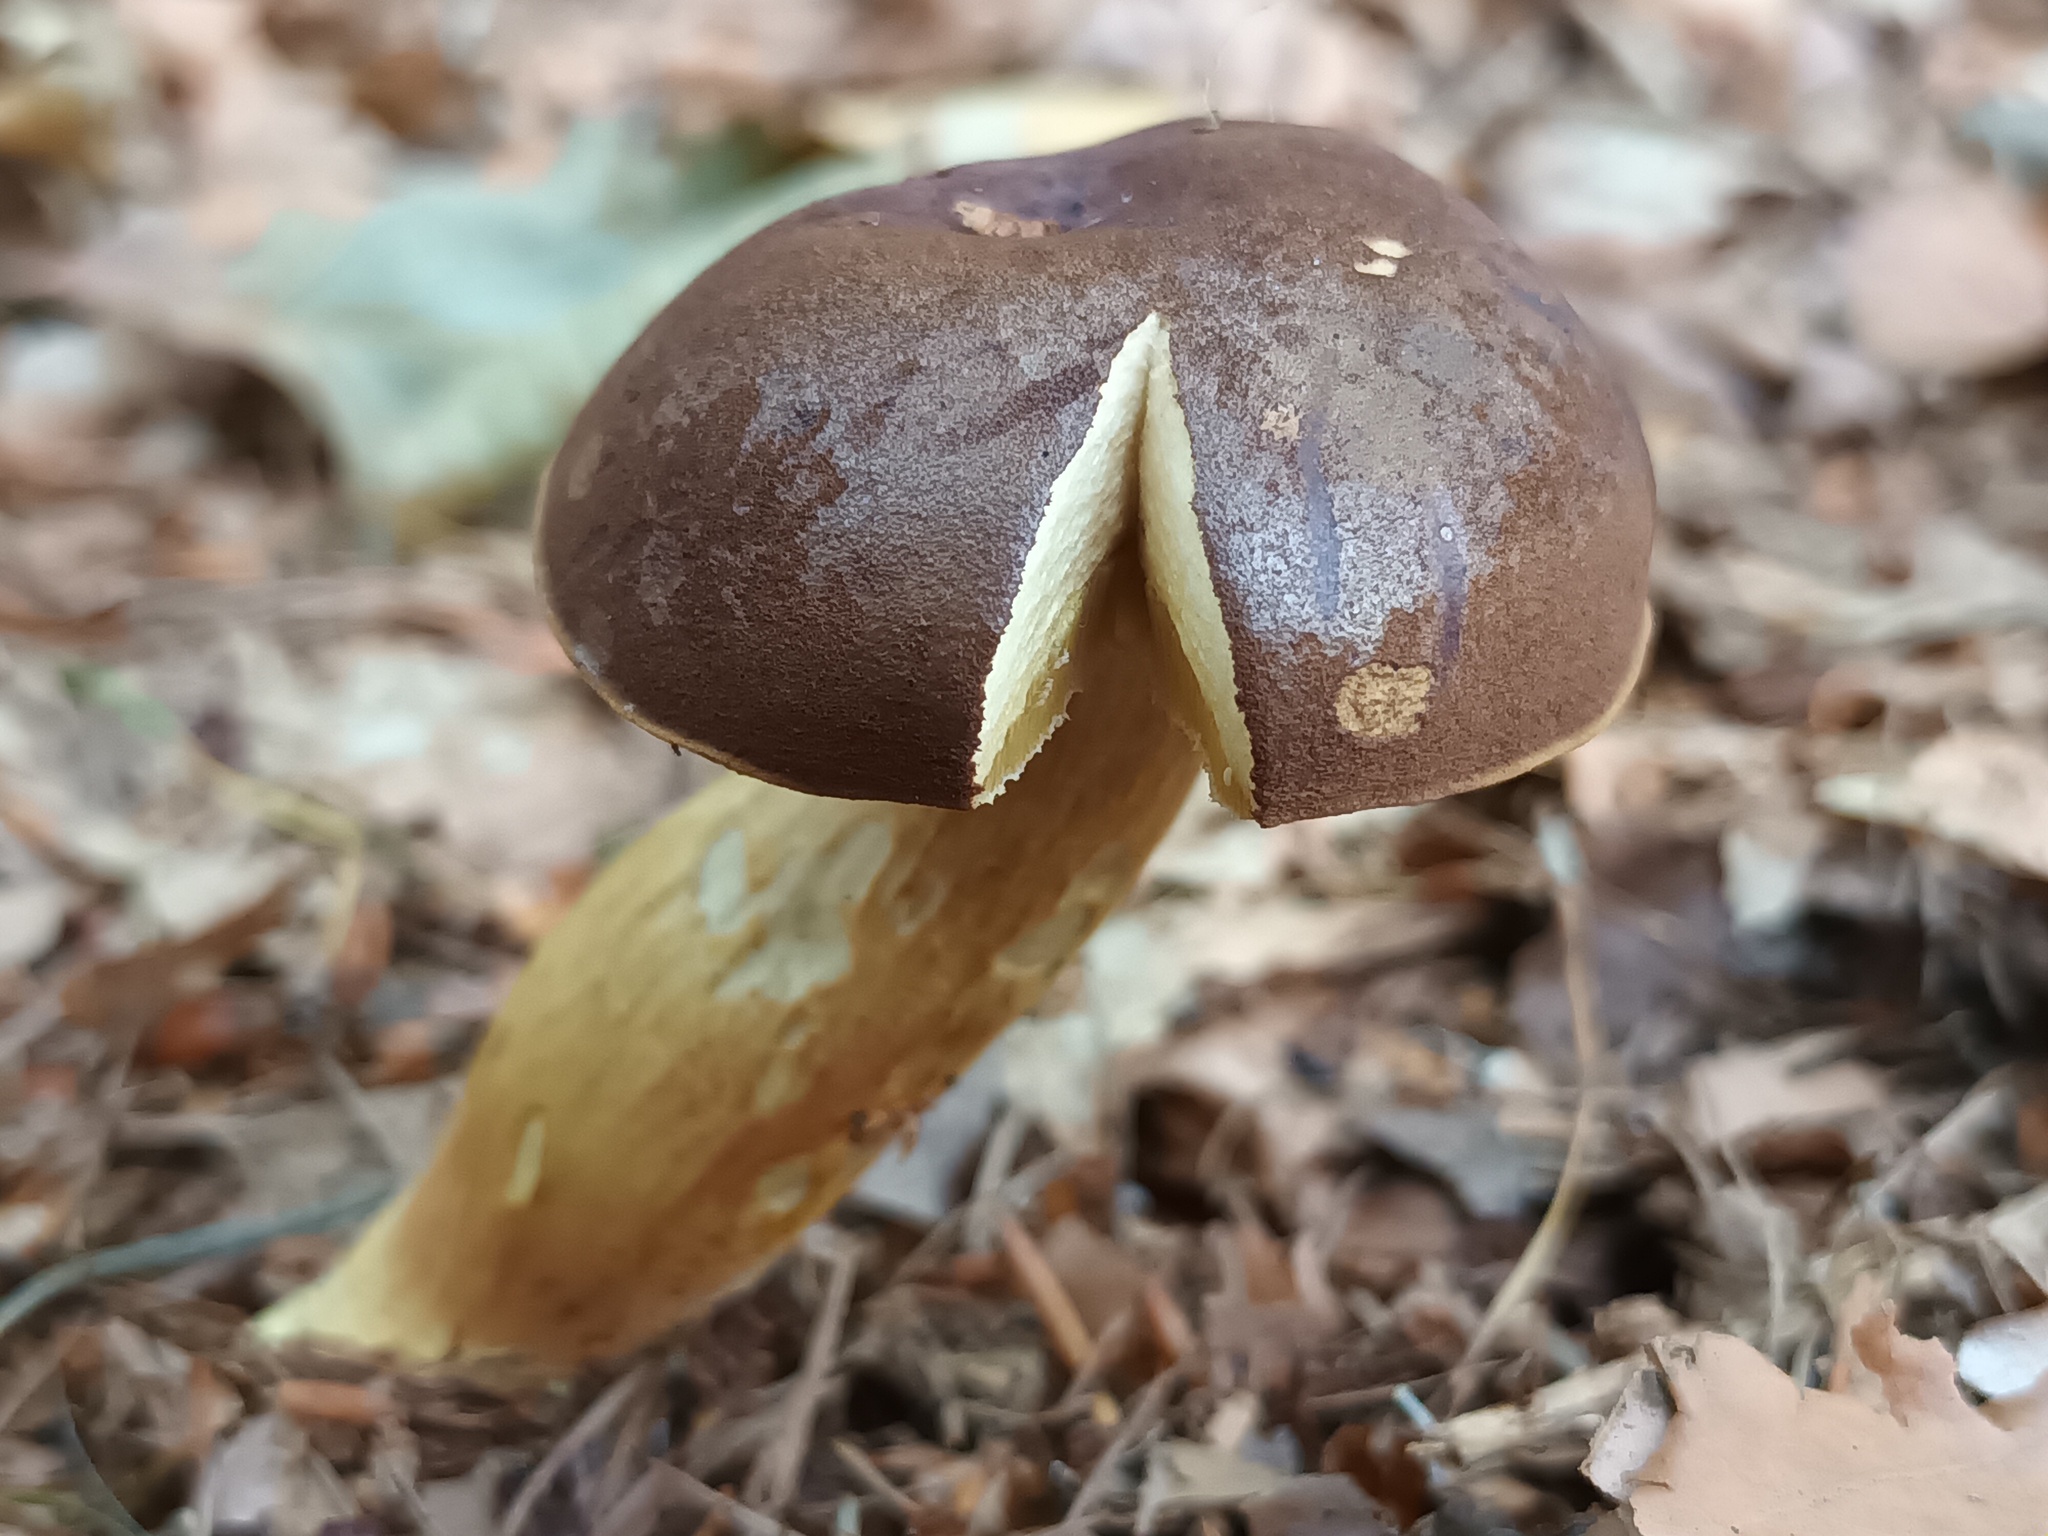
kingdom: Fungi
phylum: Basidiomycota
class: Agaricomycetes
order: Boletales
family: Boletaceae
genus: Imleria
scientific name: Imleria badia
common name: Bay bolete
